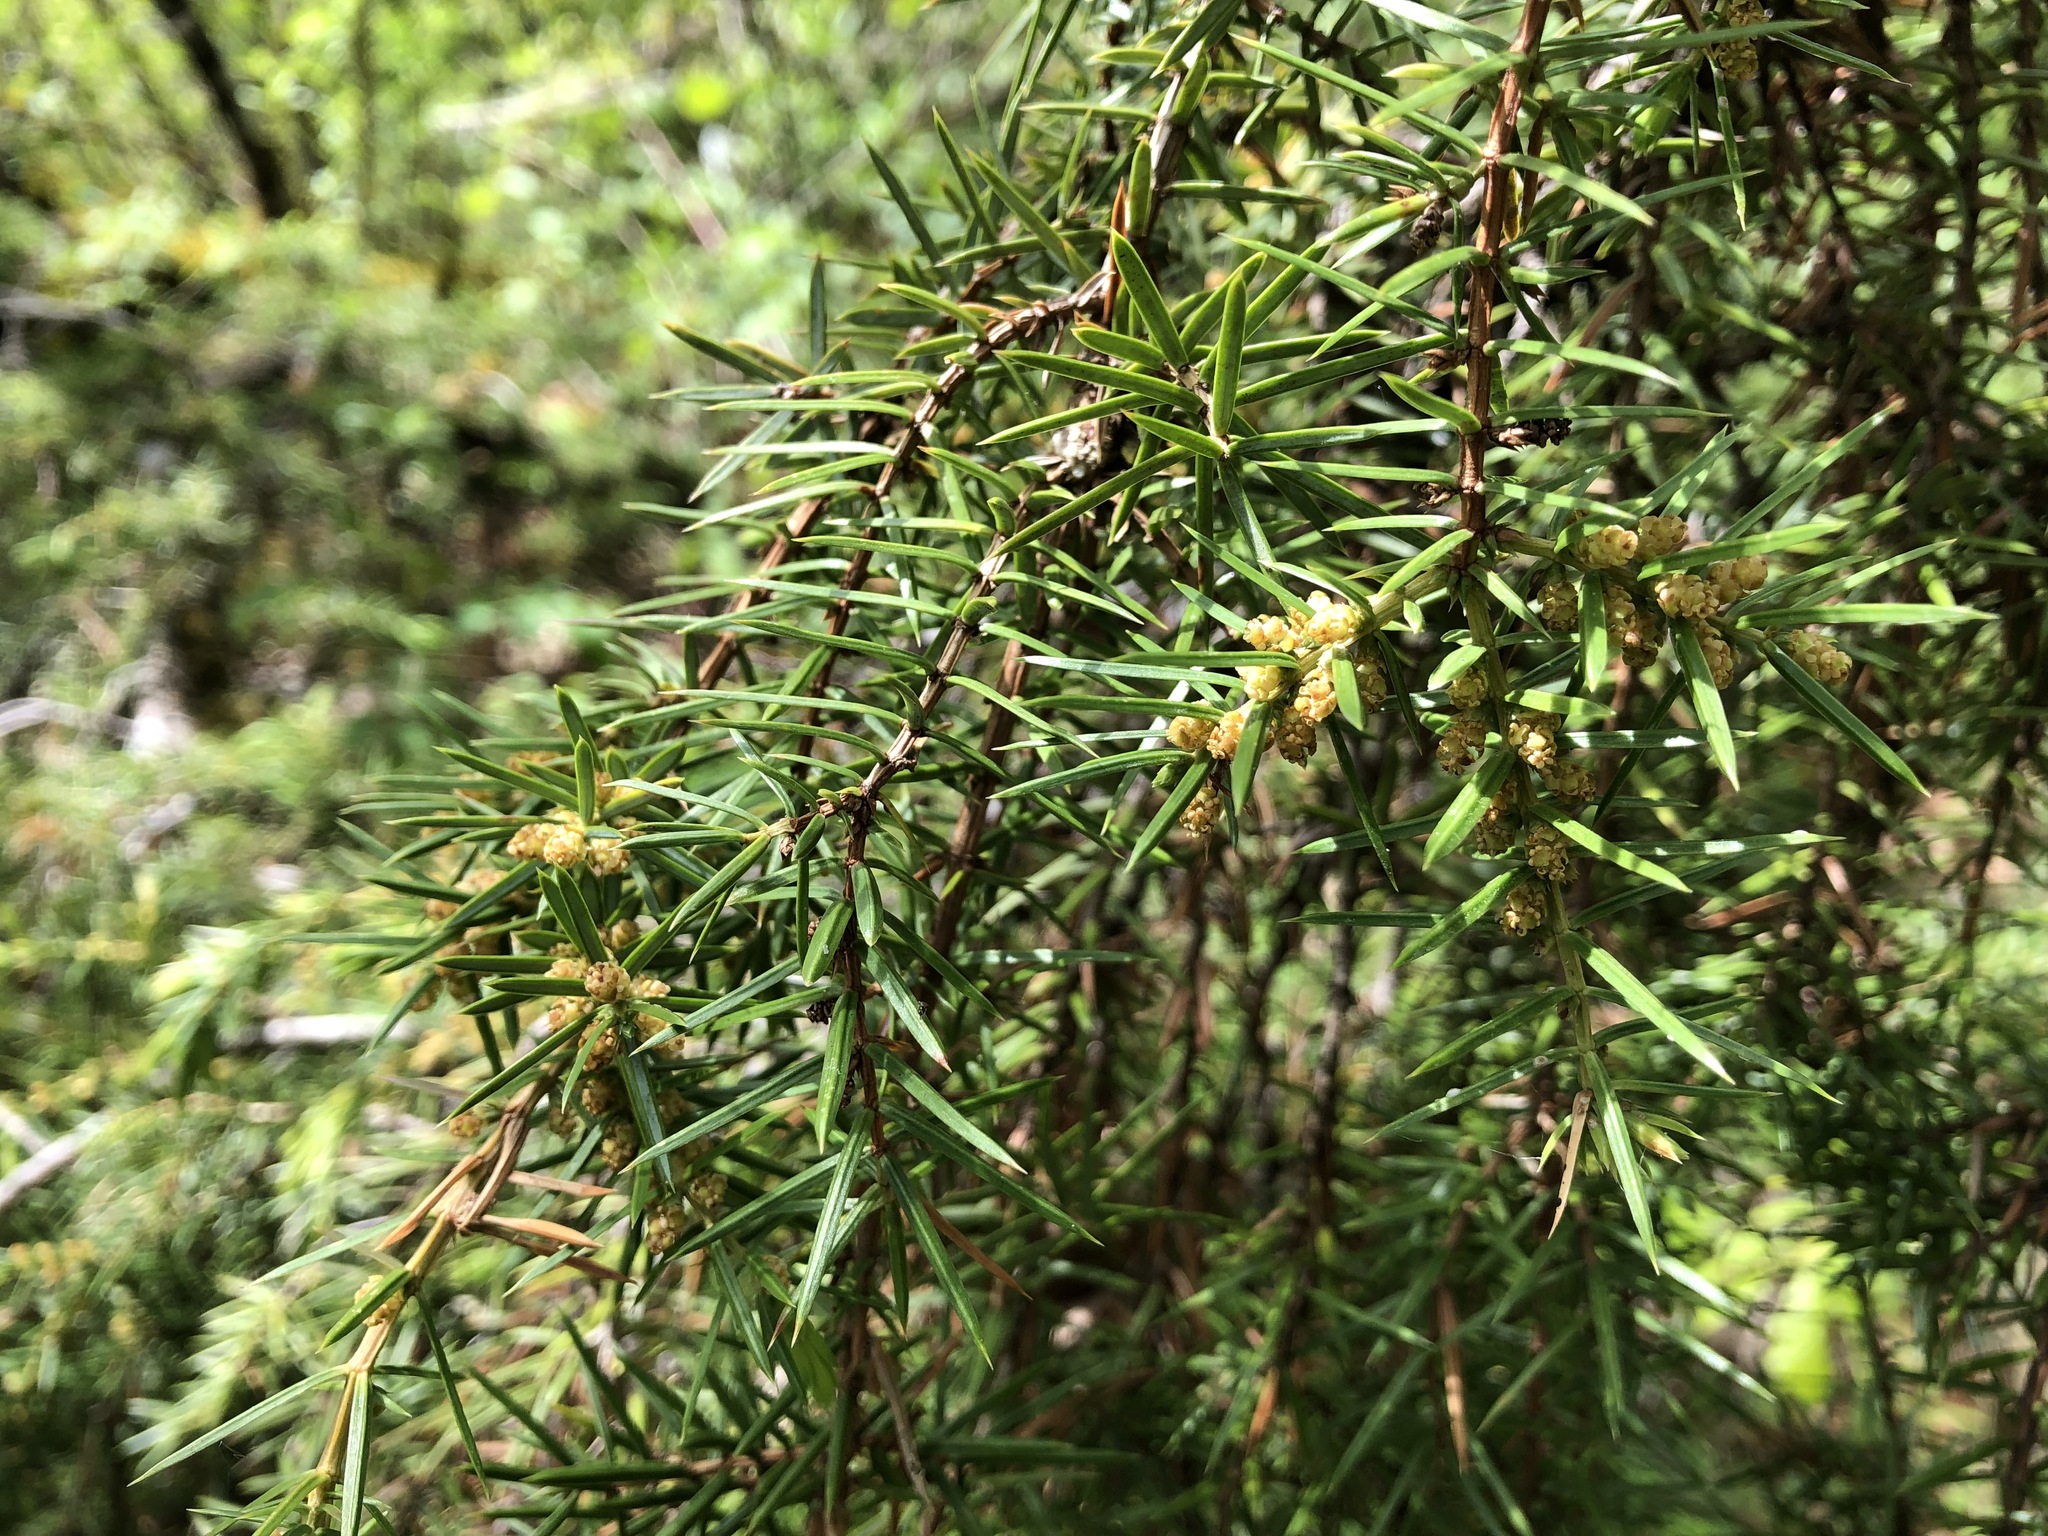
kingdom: Plantae
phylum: Tracheophyta
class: Pinopsida
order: Pinales
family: Cupressaceae
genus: Juniperus
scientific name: Juniperus communis
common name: Common juniper
